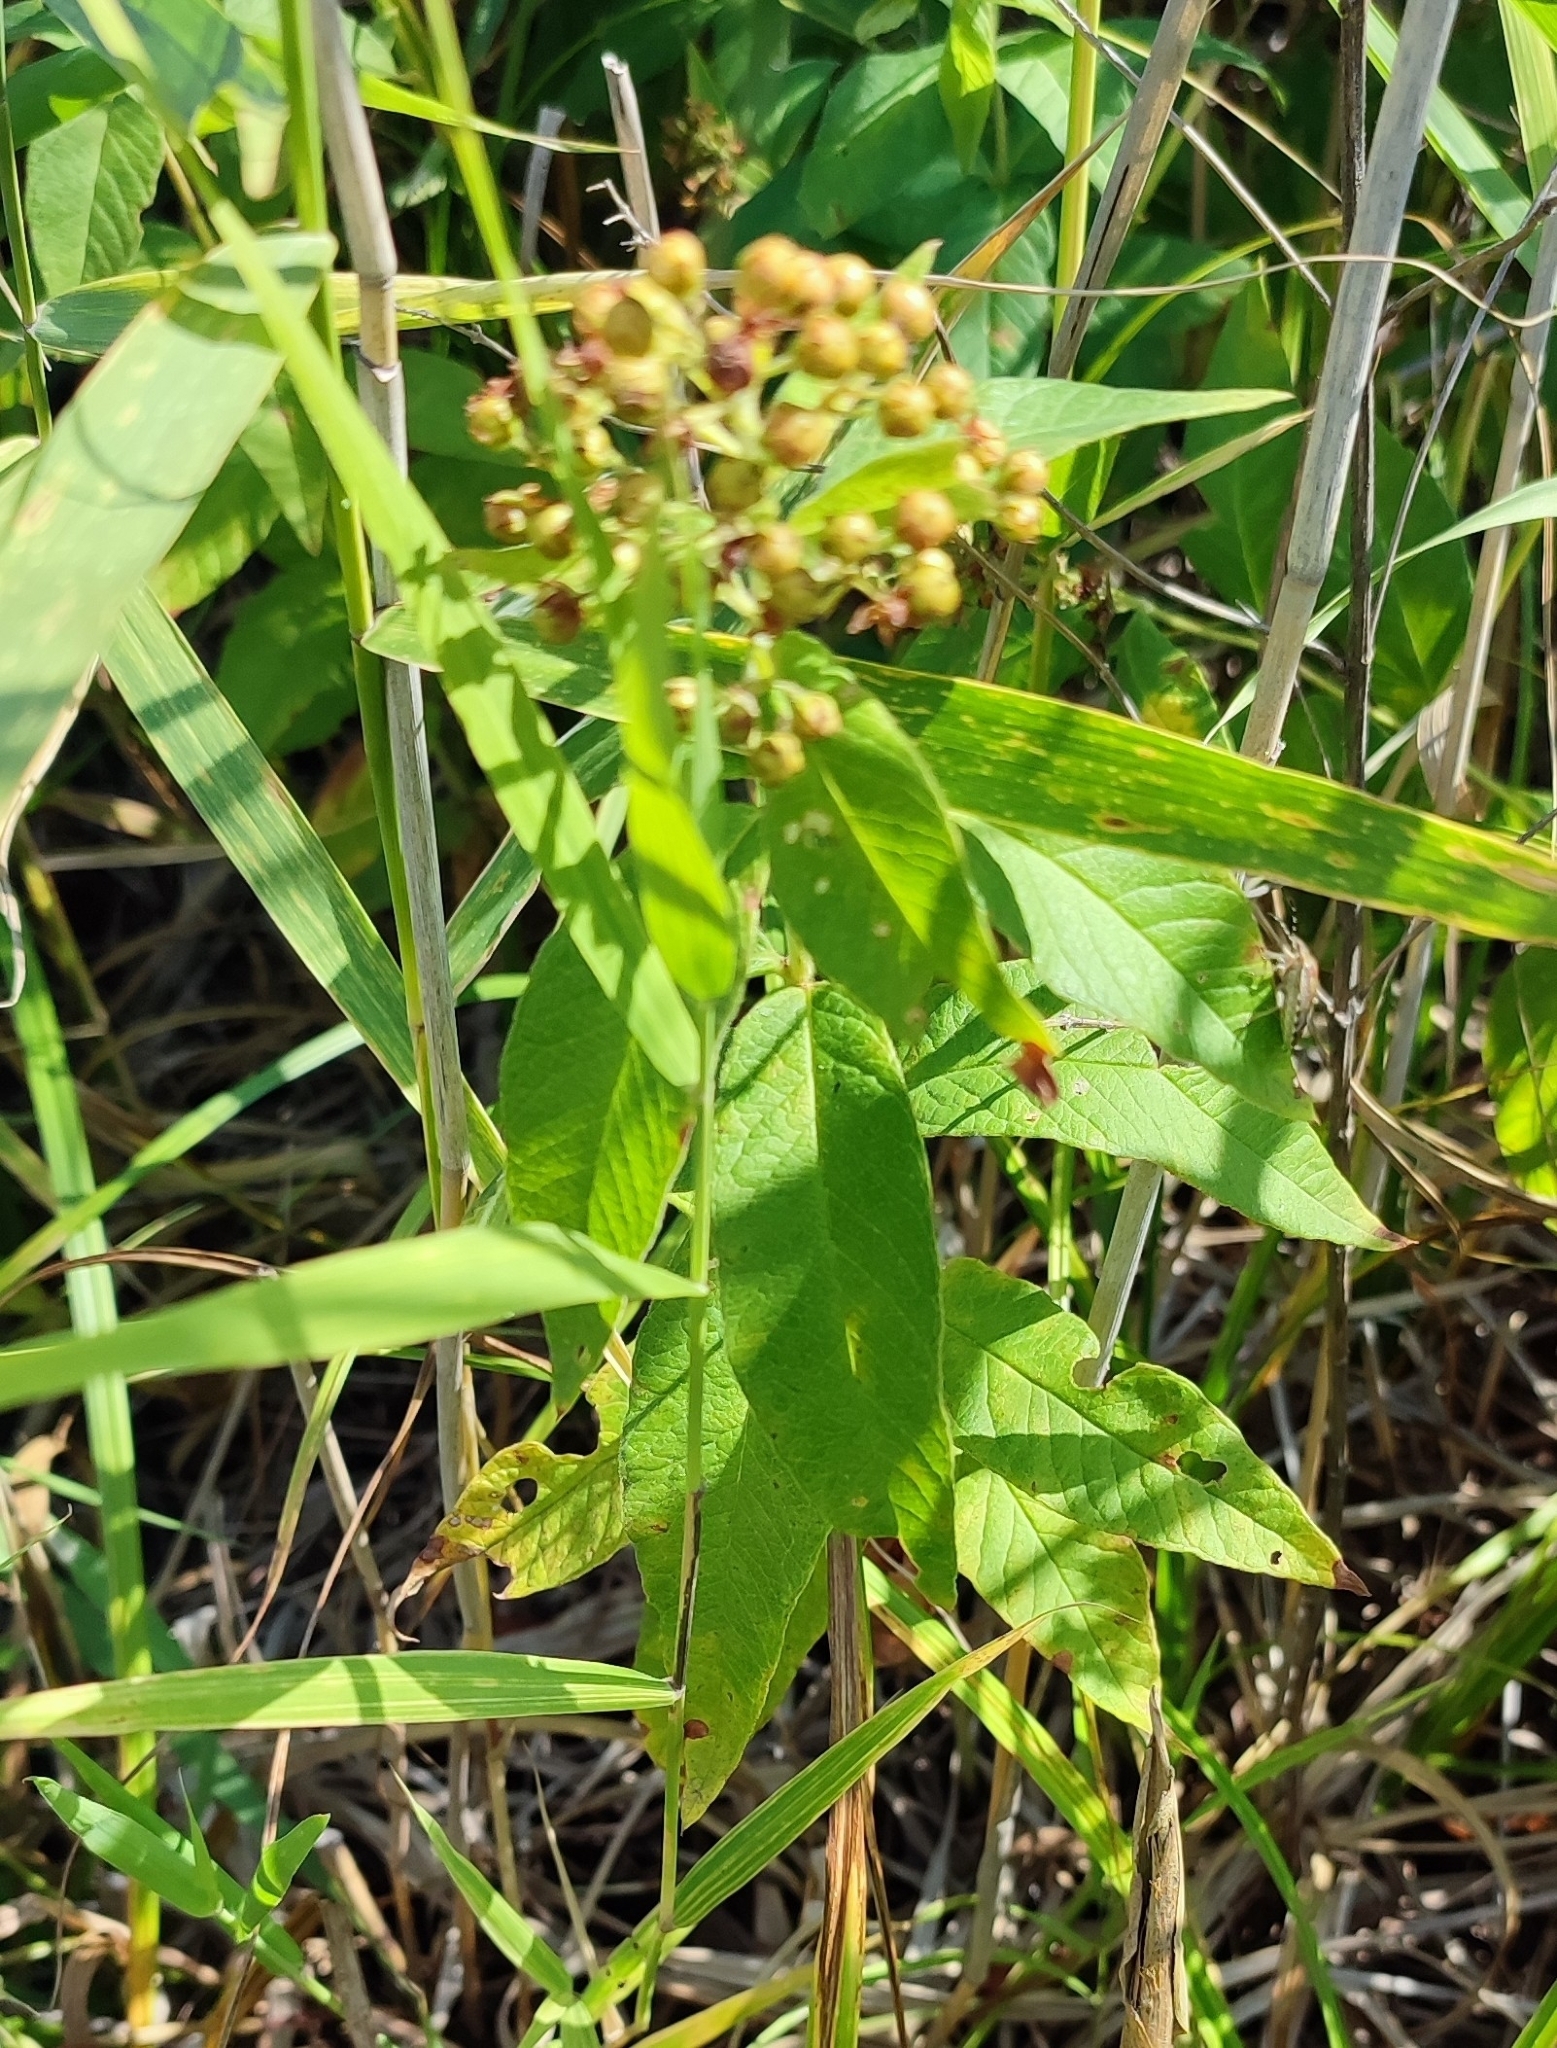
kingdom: Plantae
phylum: Tracheophyta
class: Magnoliopsida
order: Ericales
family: Primulaceae
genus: Lysimachia
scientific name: Lysimachia vulgaris
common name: Yellow loosestrife
